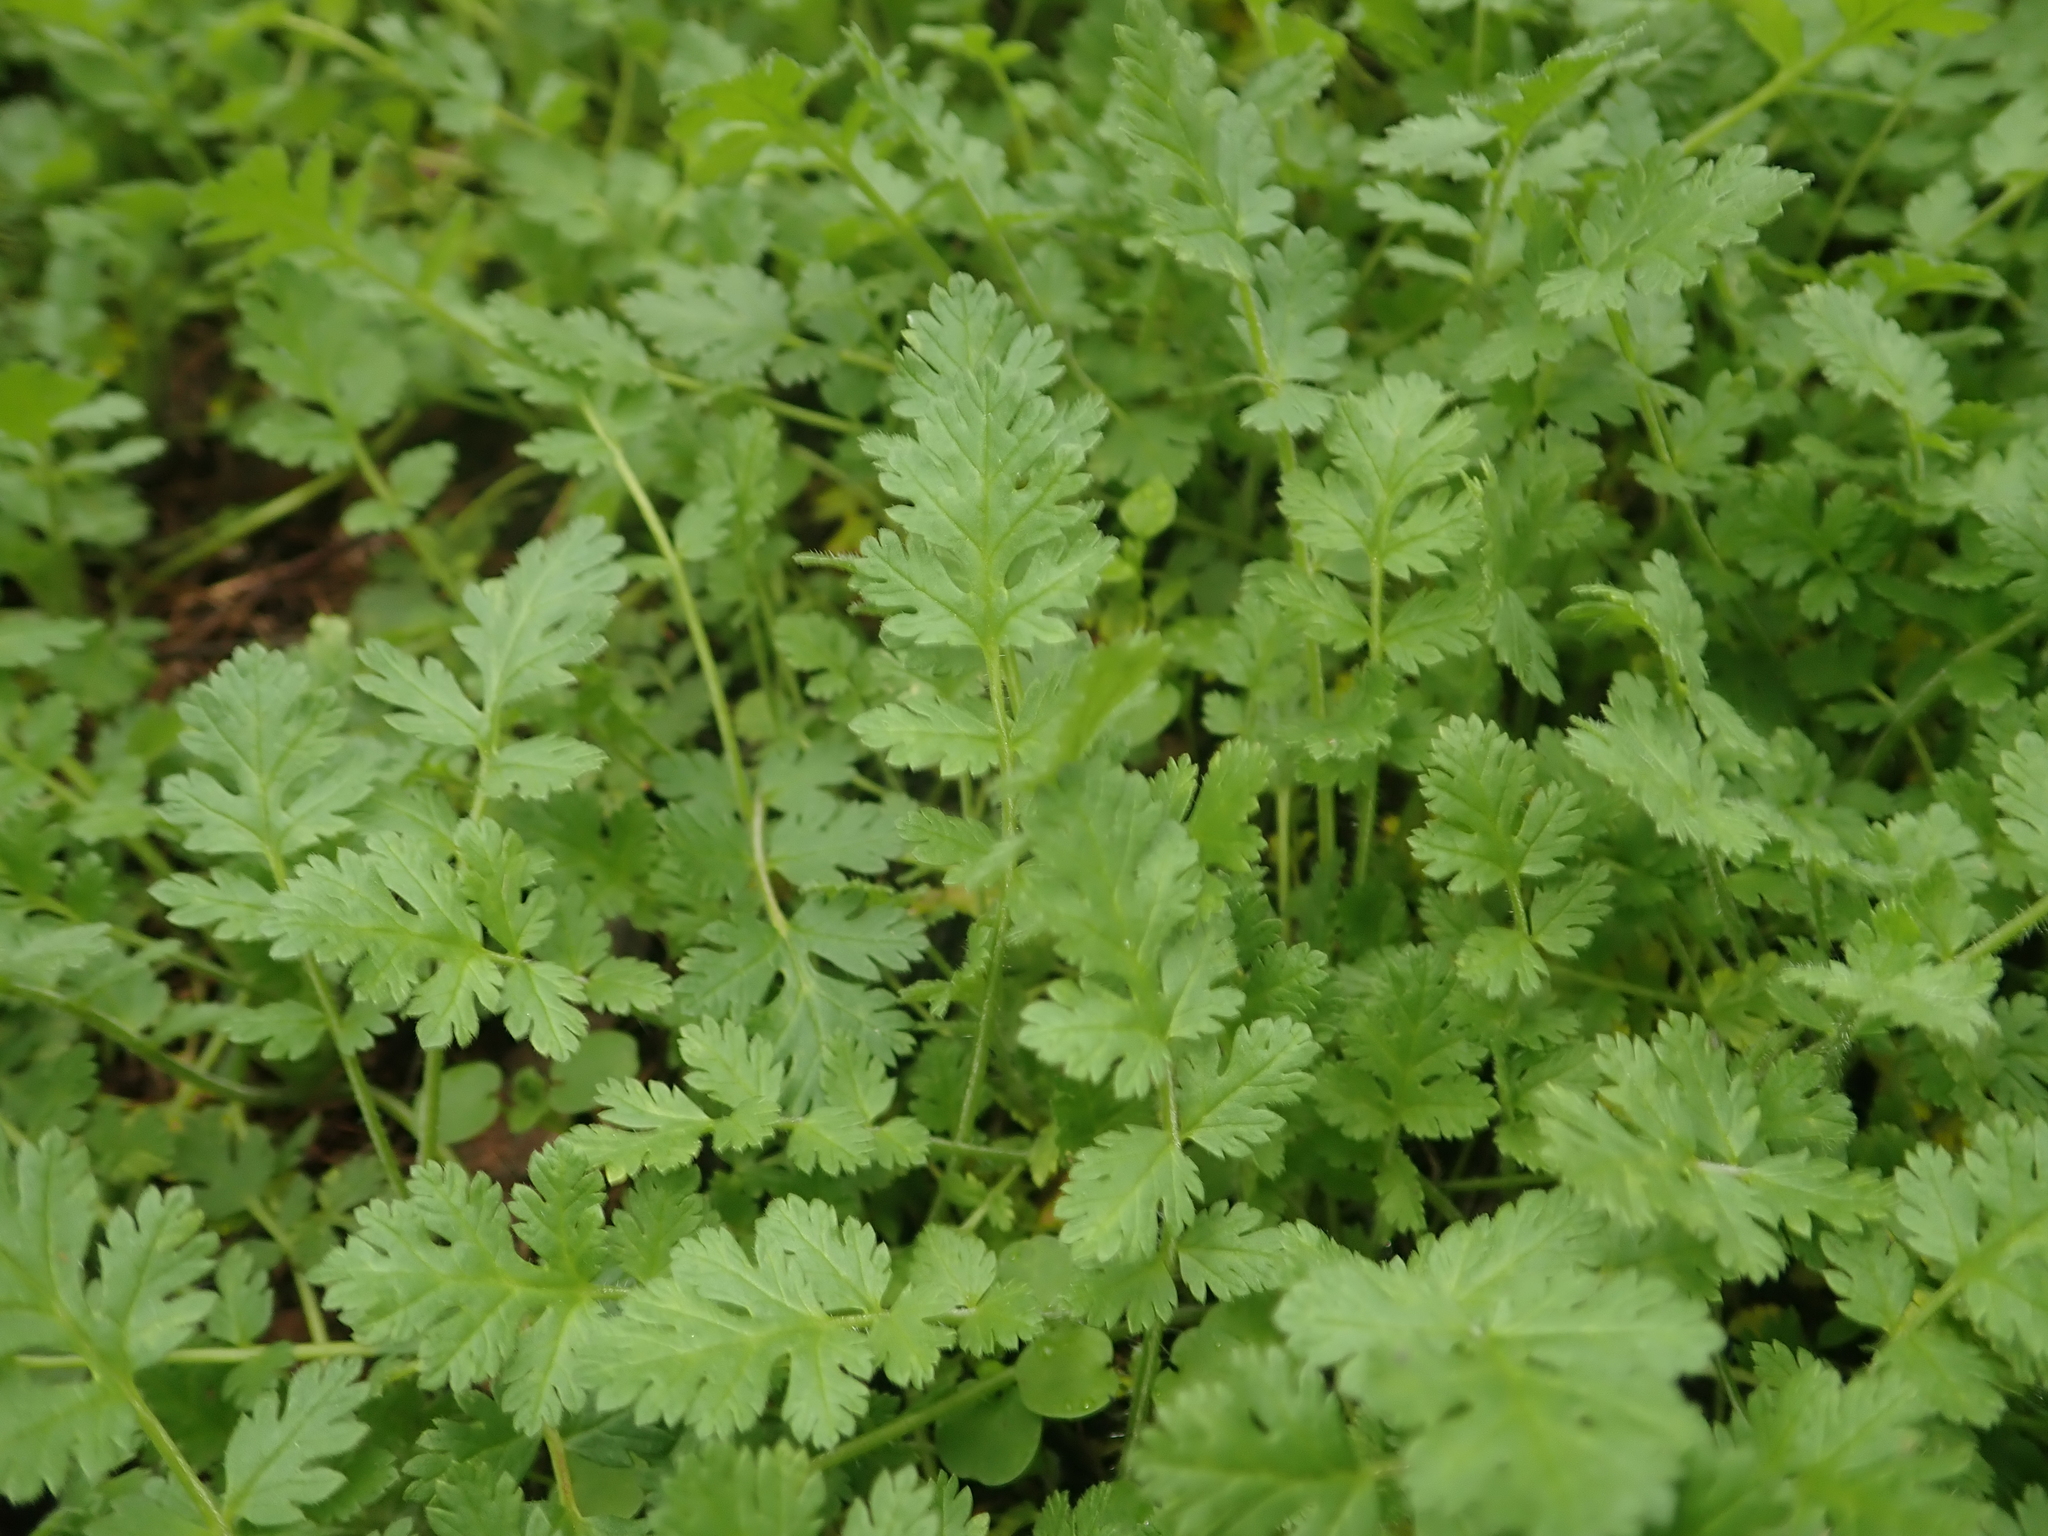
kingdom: Plantae
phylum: Tracheophyta
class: Magnoliopsida
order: Geraniales
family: Geraniaceae
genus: Erodium
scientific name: Erodium cicutarium
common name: Common stork's-bill
